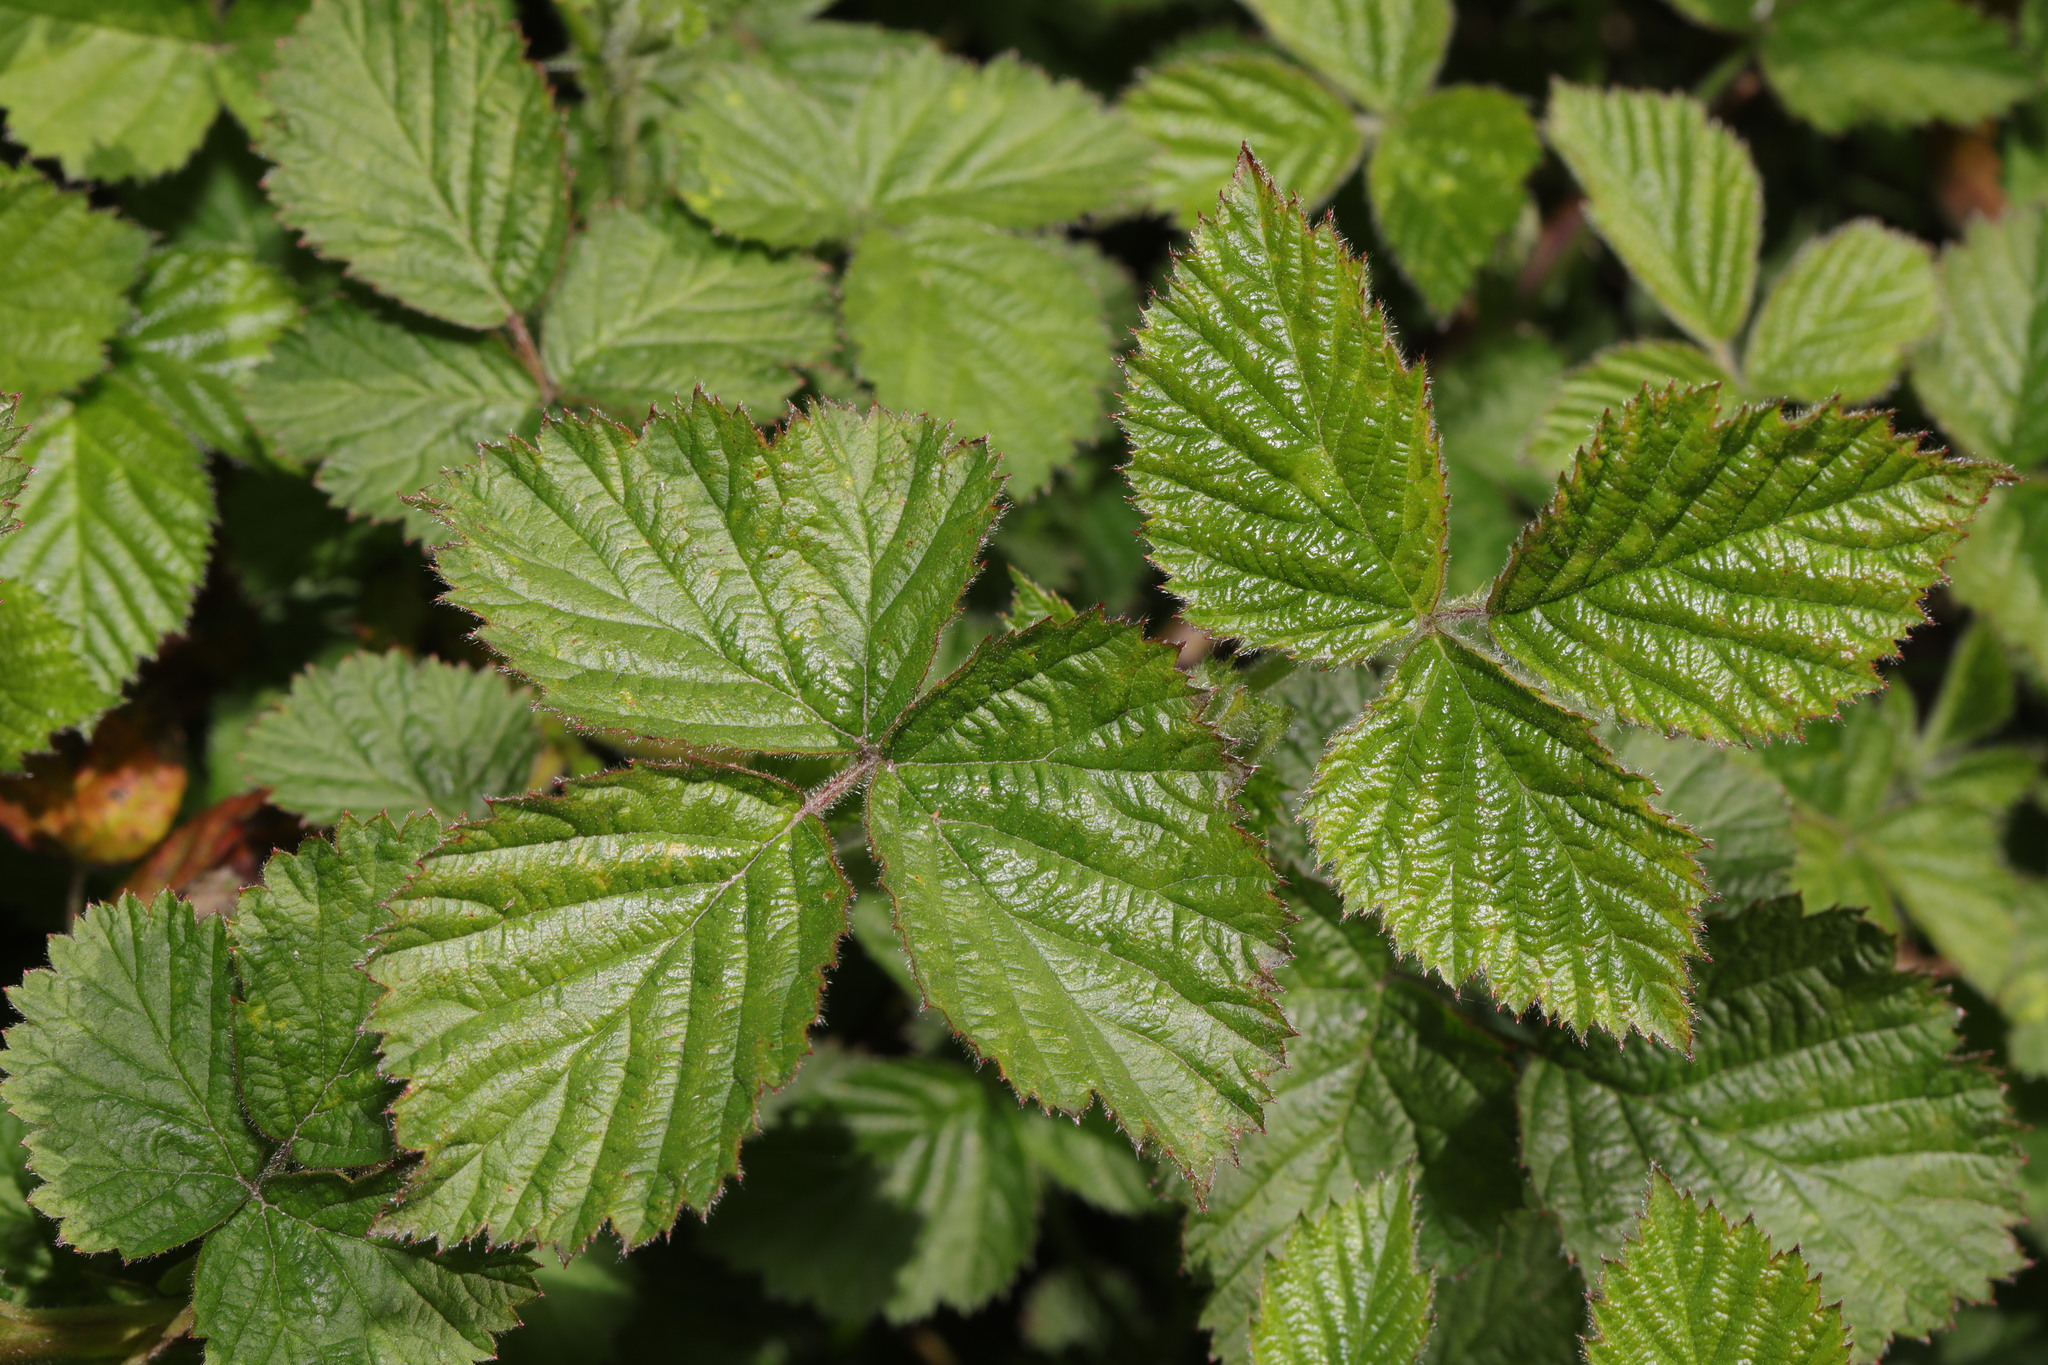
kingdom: Plantae
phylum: Tracheophyta
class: Magnoliopsida
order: Rosales
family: Rosaceae
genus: Rubus
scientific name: Rubus fruticosus
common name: Blackberry, bramble
